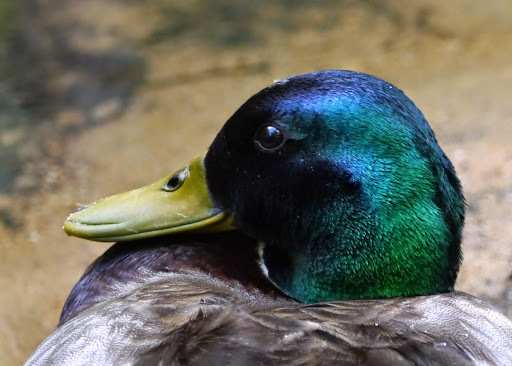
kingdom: Animalia
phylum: Chordata
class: Aves
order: Anseriformes
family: Anatidae
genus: Anas
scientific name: Anas platyrhynchos
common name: Mallard
